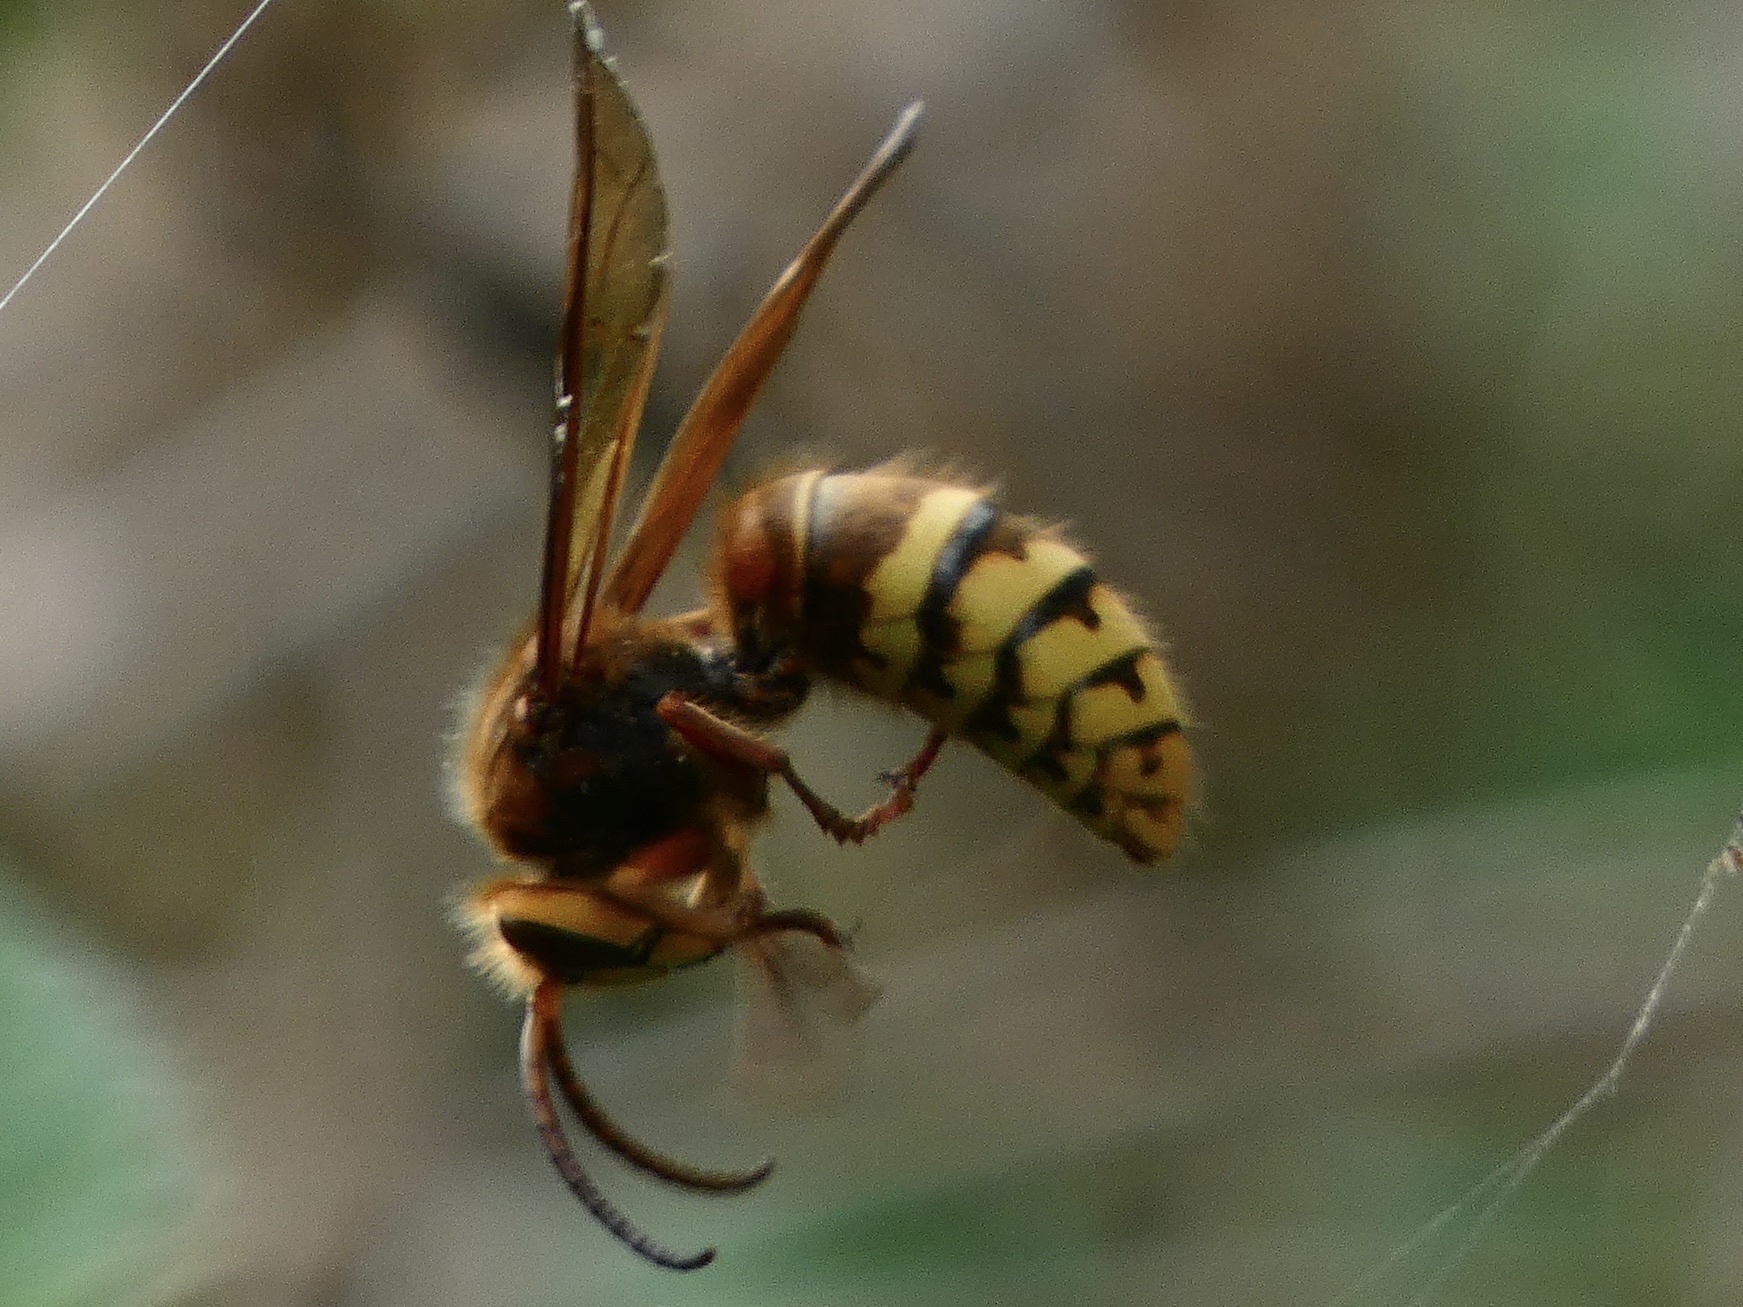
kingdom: Animalia
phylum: Arthropoda
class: Insecta
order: Hymenoptera
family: Vespidae
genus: Vespa
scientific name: Vespa crabro
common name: Hornet
